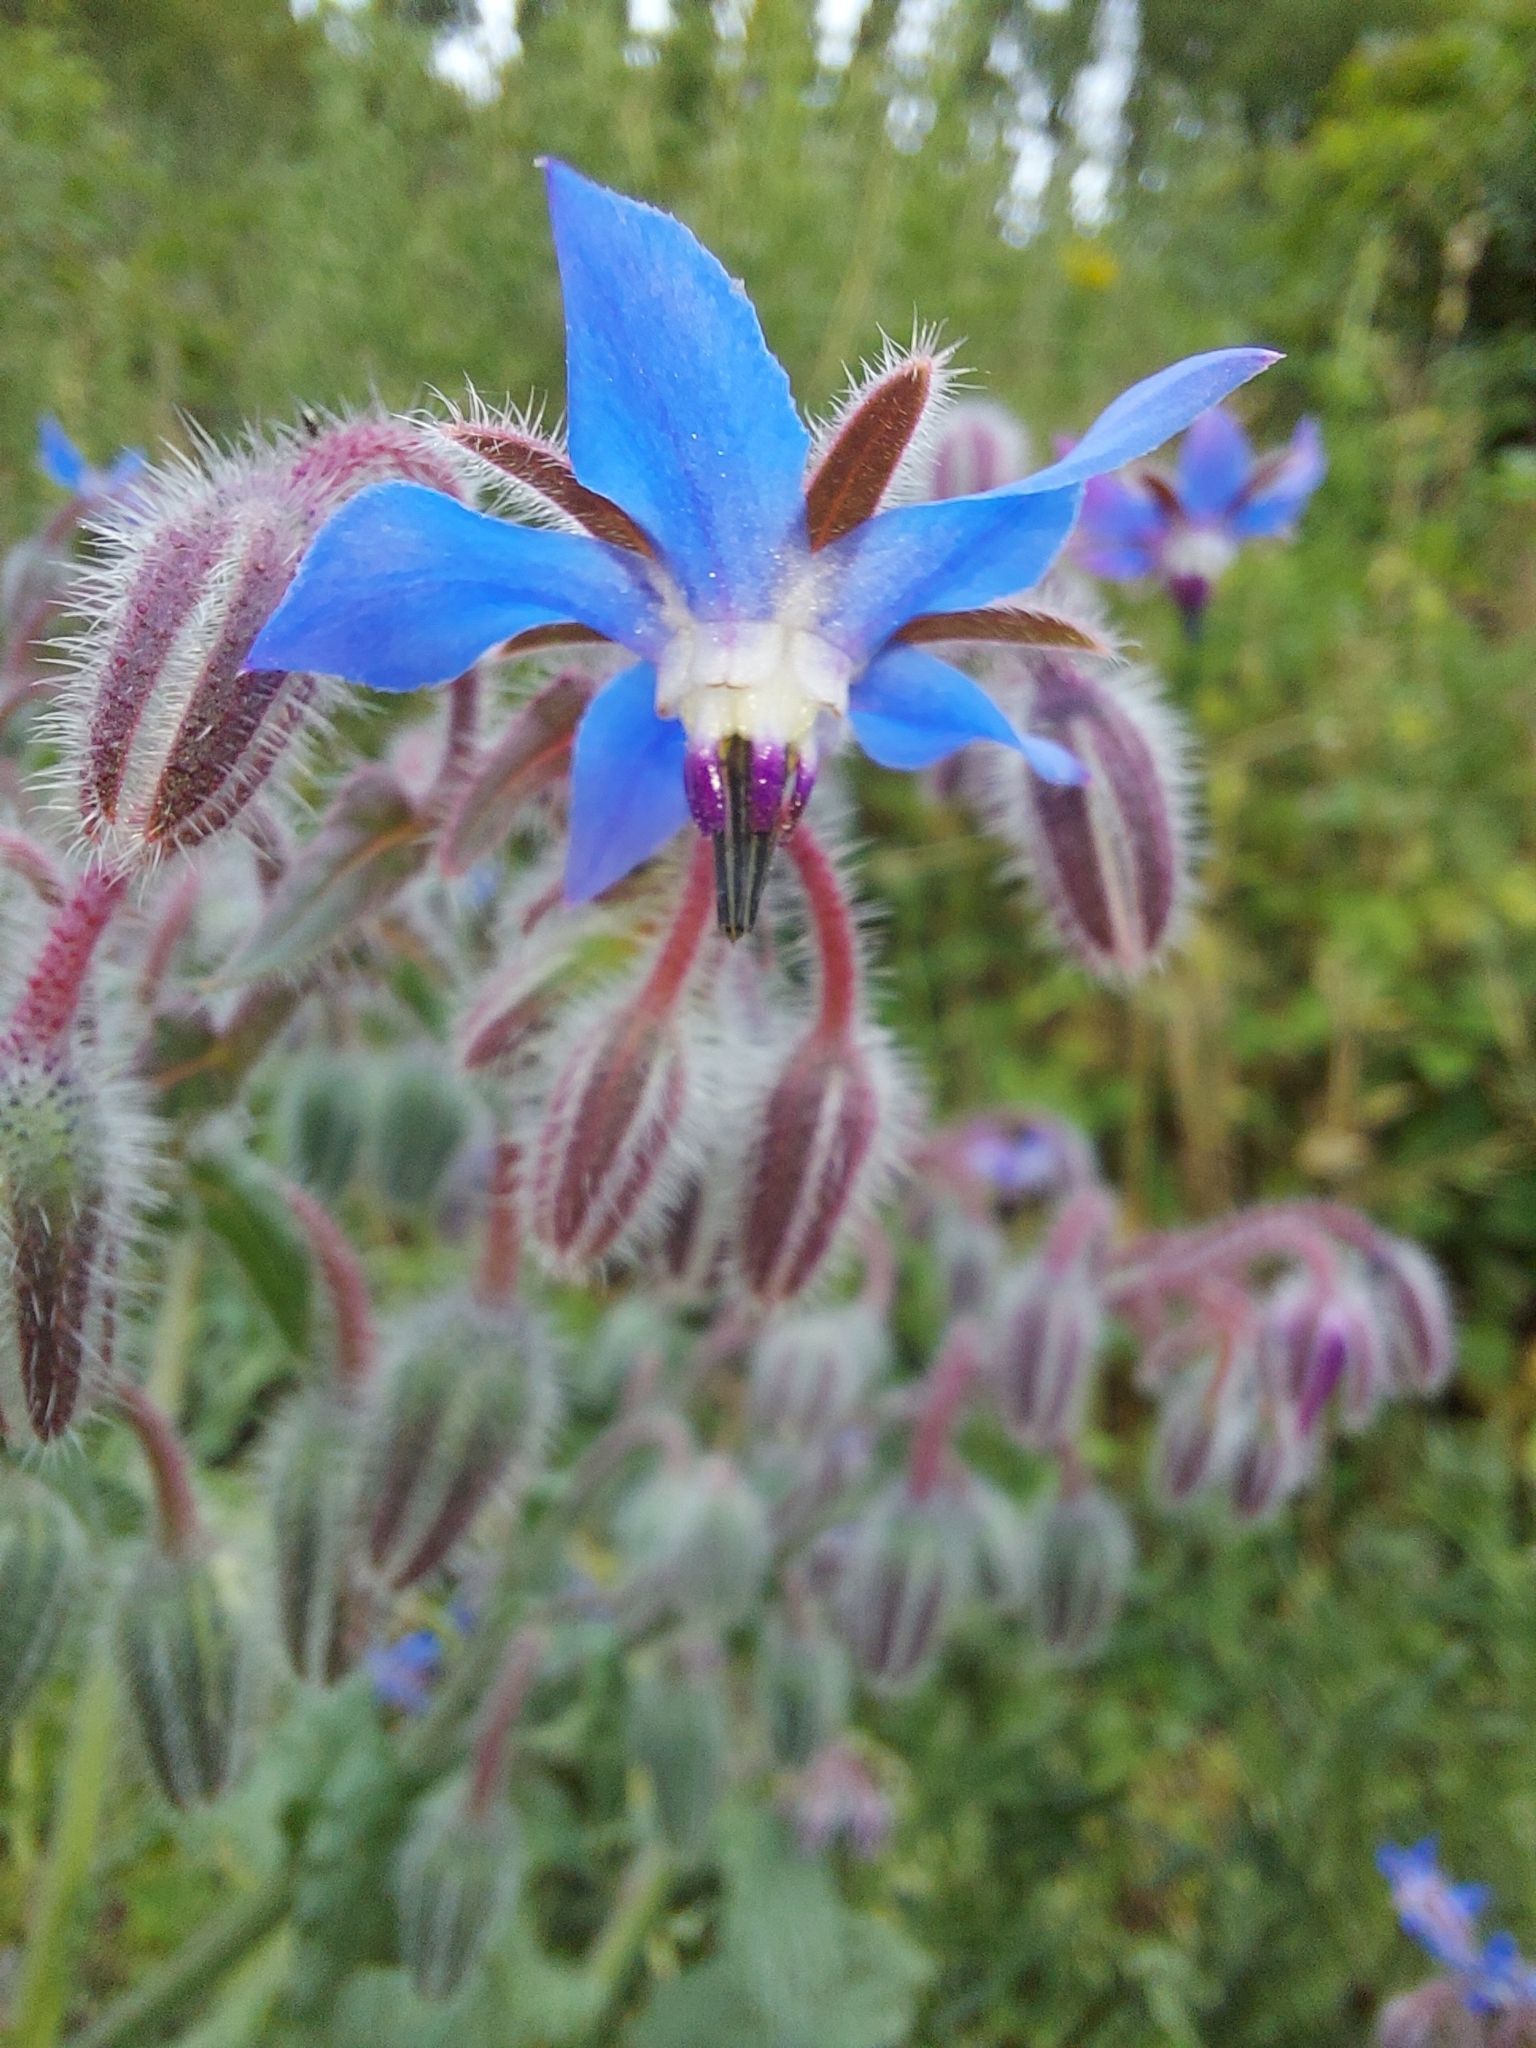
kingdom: Plantae
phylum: Tracheophyta
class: Magnoliopsida
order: Boraginales
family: Boraginaceae
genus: Borago
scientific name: Borago officinalis
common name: Borage
